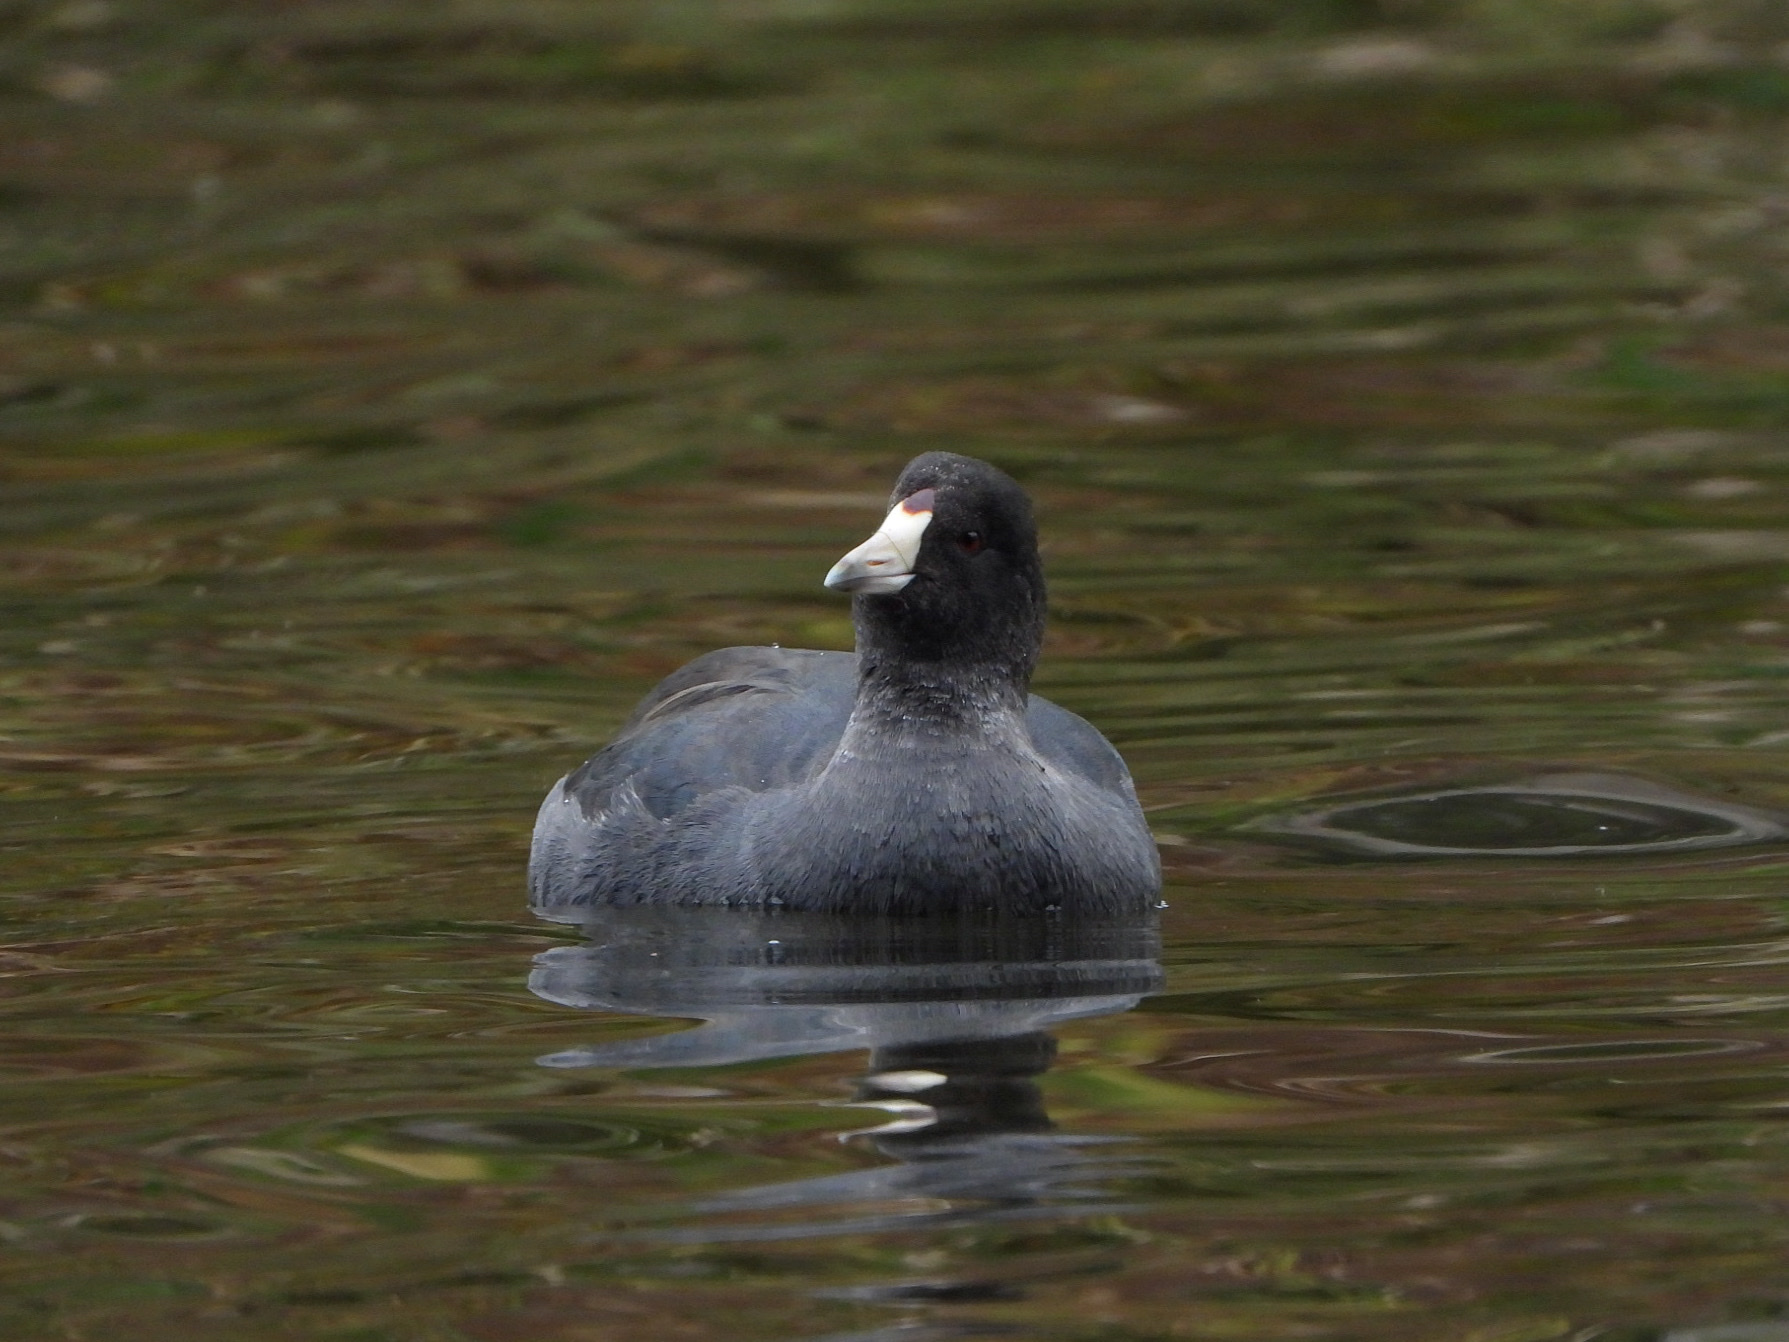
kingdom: Animalia
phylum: Chordata
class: Aves
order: Gruiformes
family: Rallidae
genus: Fulica
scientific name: Fulica americana
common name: American coot
